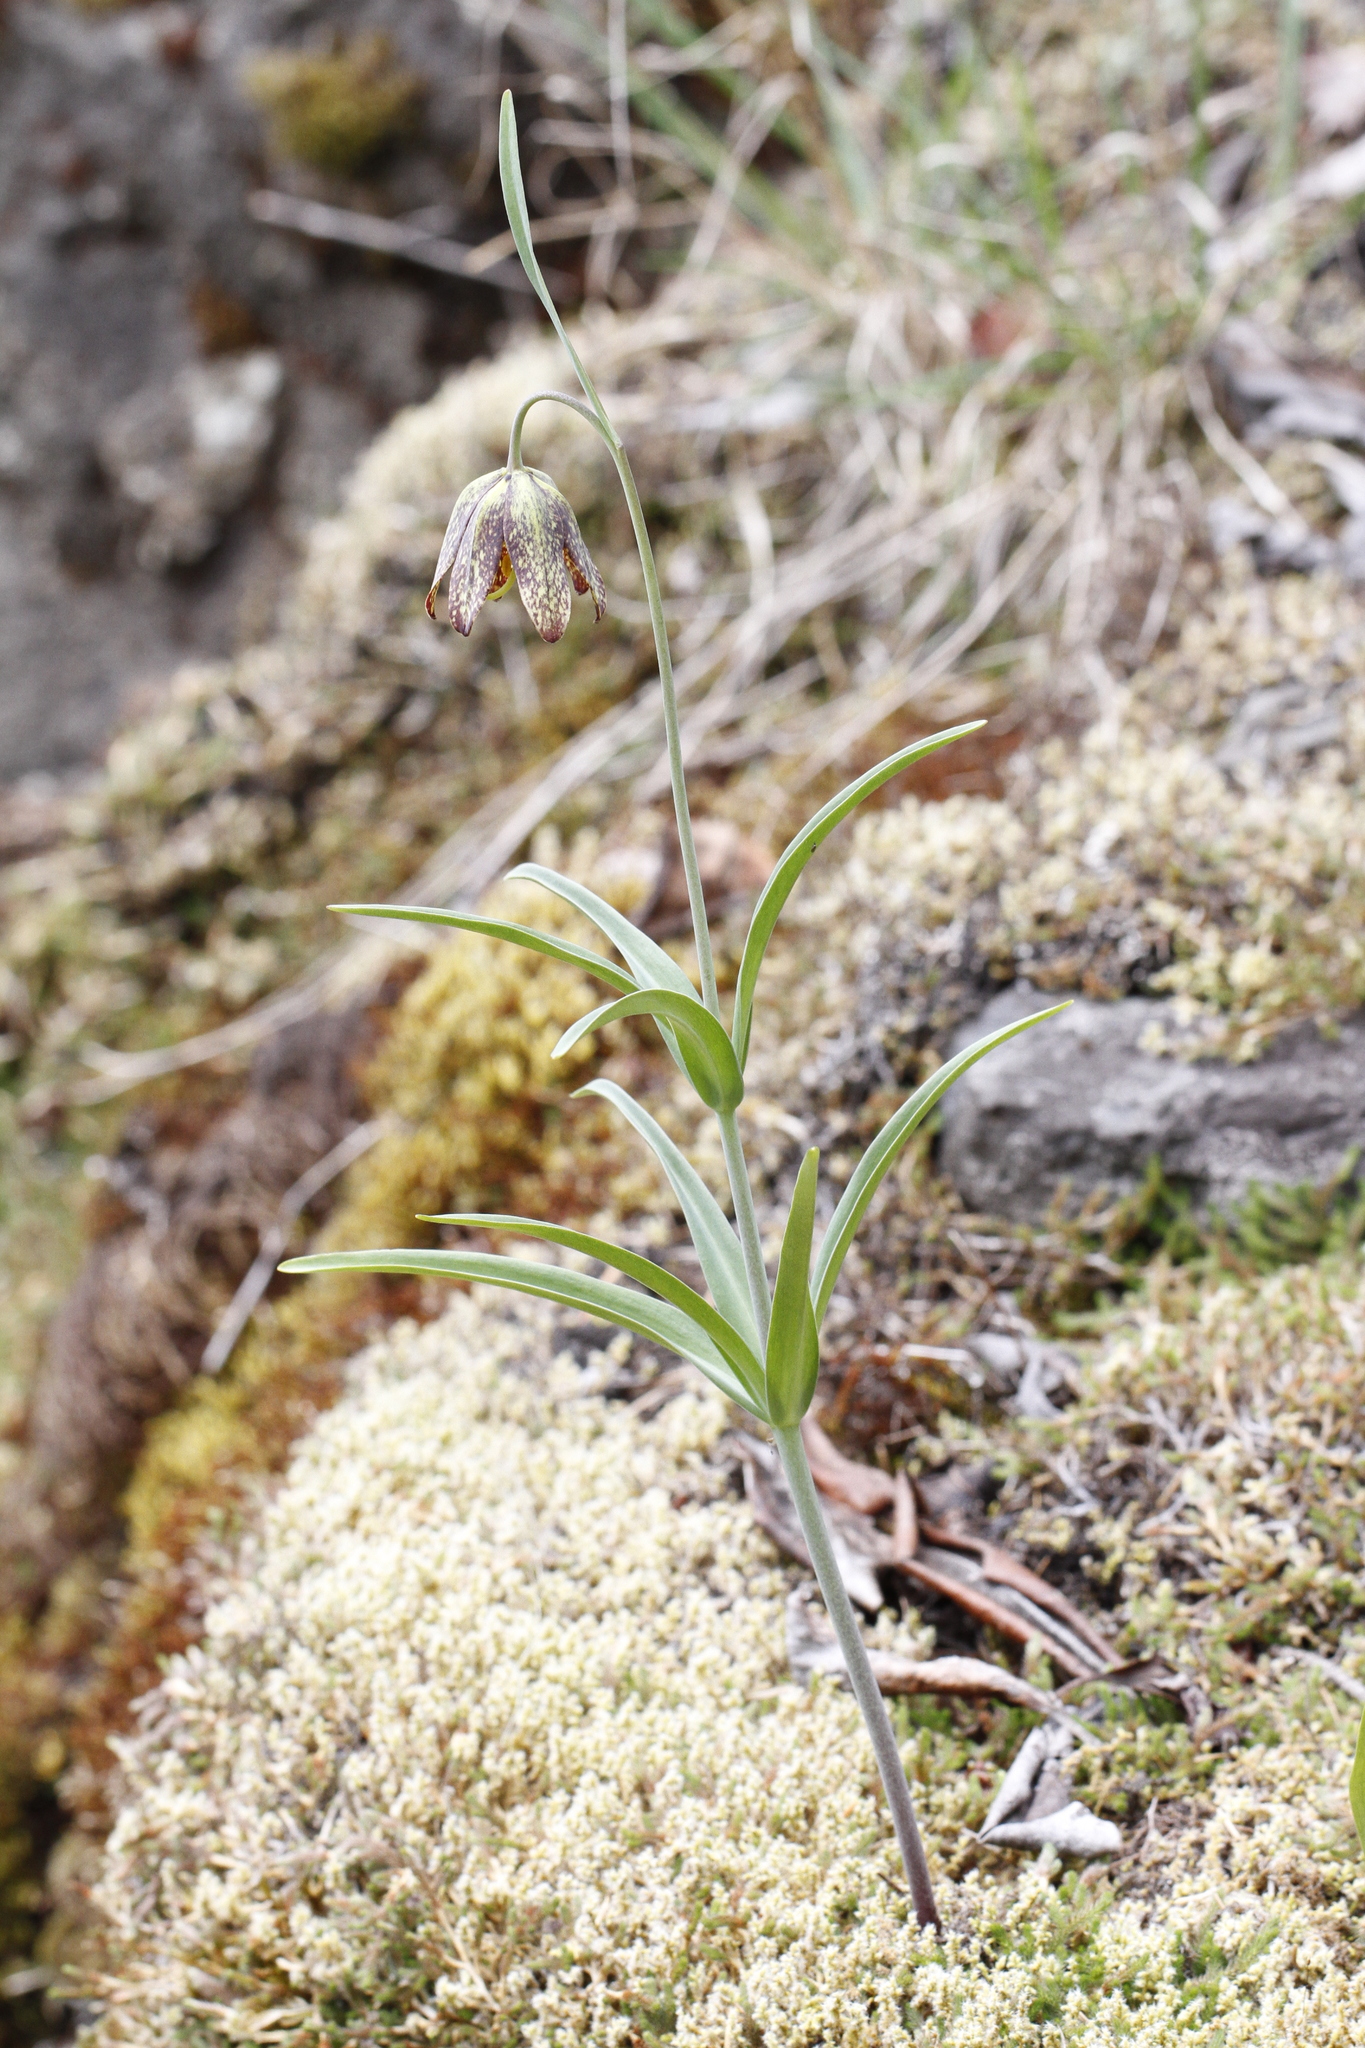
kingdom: Plantae
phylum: Tracheophyta
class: Liliopsida
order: Liliales
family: Liliaceae
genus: Fritillaria
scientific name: Fritillaria affinis
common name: Ojai fritillary
